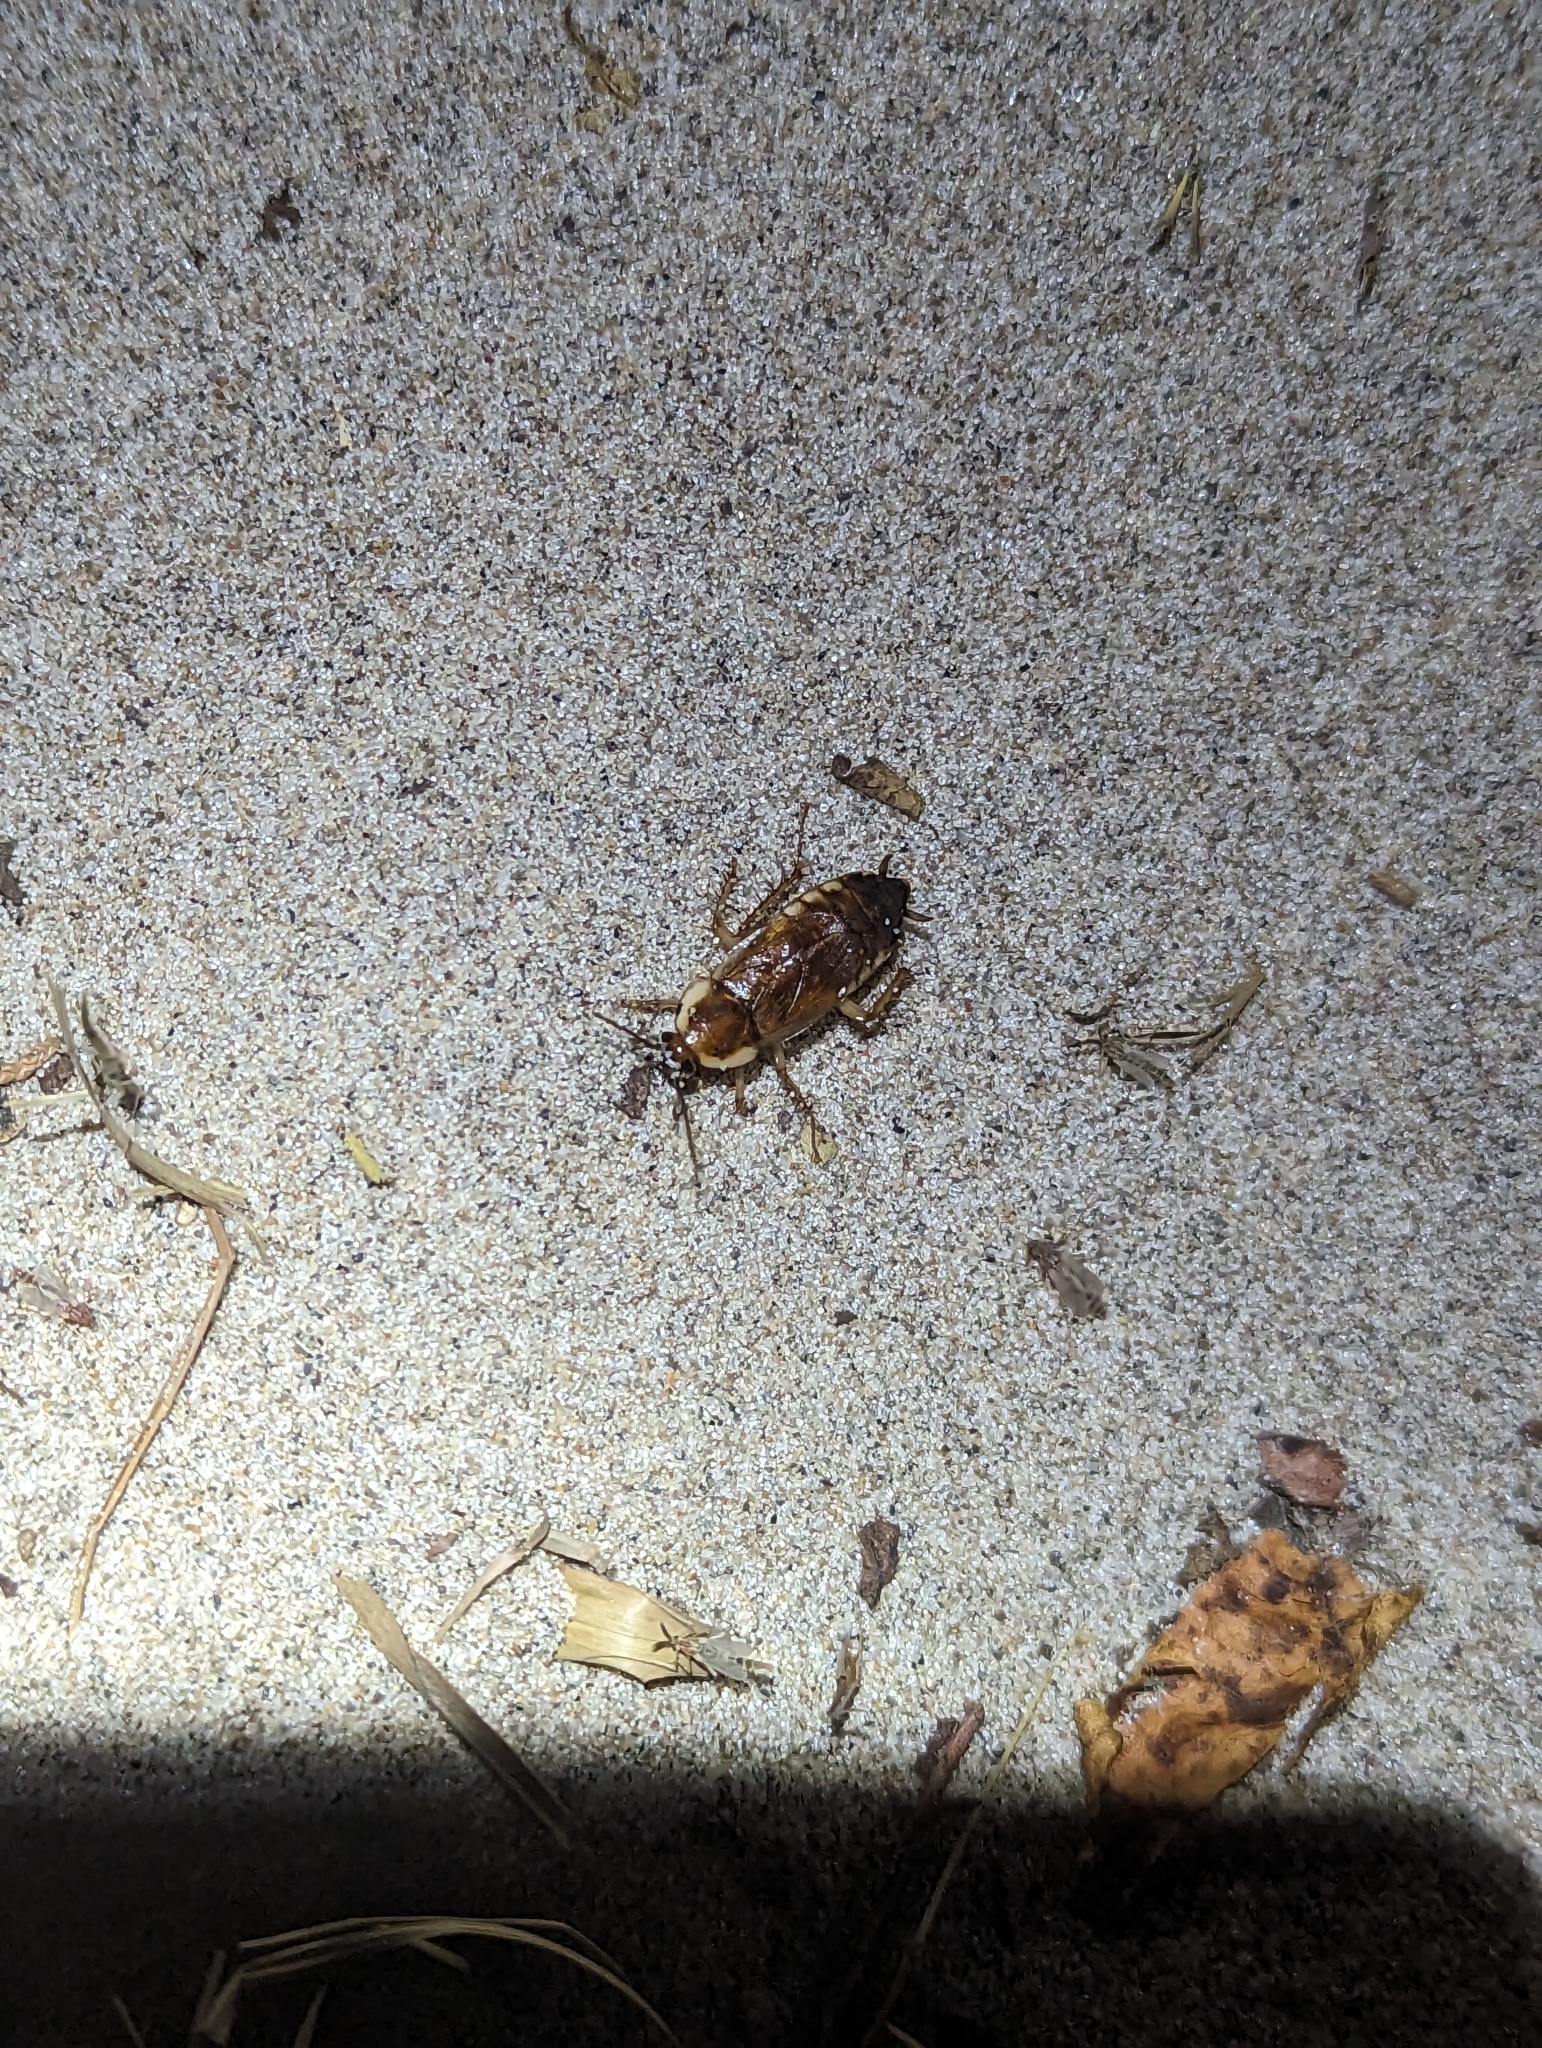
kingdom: Animalia
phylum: Arthropoda
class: Insecta
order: Blattodea
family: Ectobiidae
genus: Parcoblatta
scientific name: Parcoblatta pennsylvanica
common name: Pennsylvanian wood cockroach
